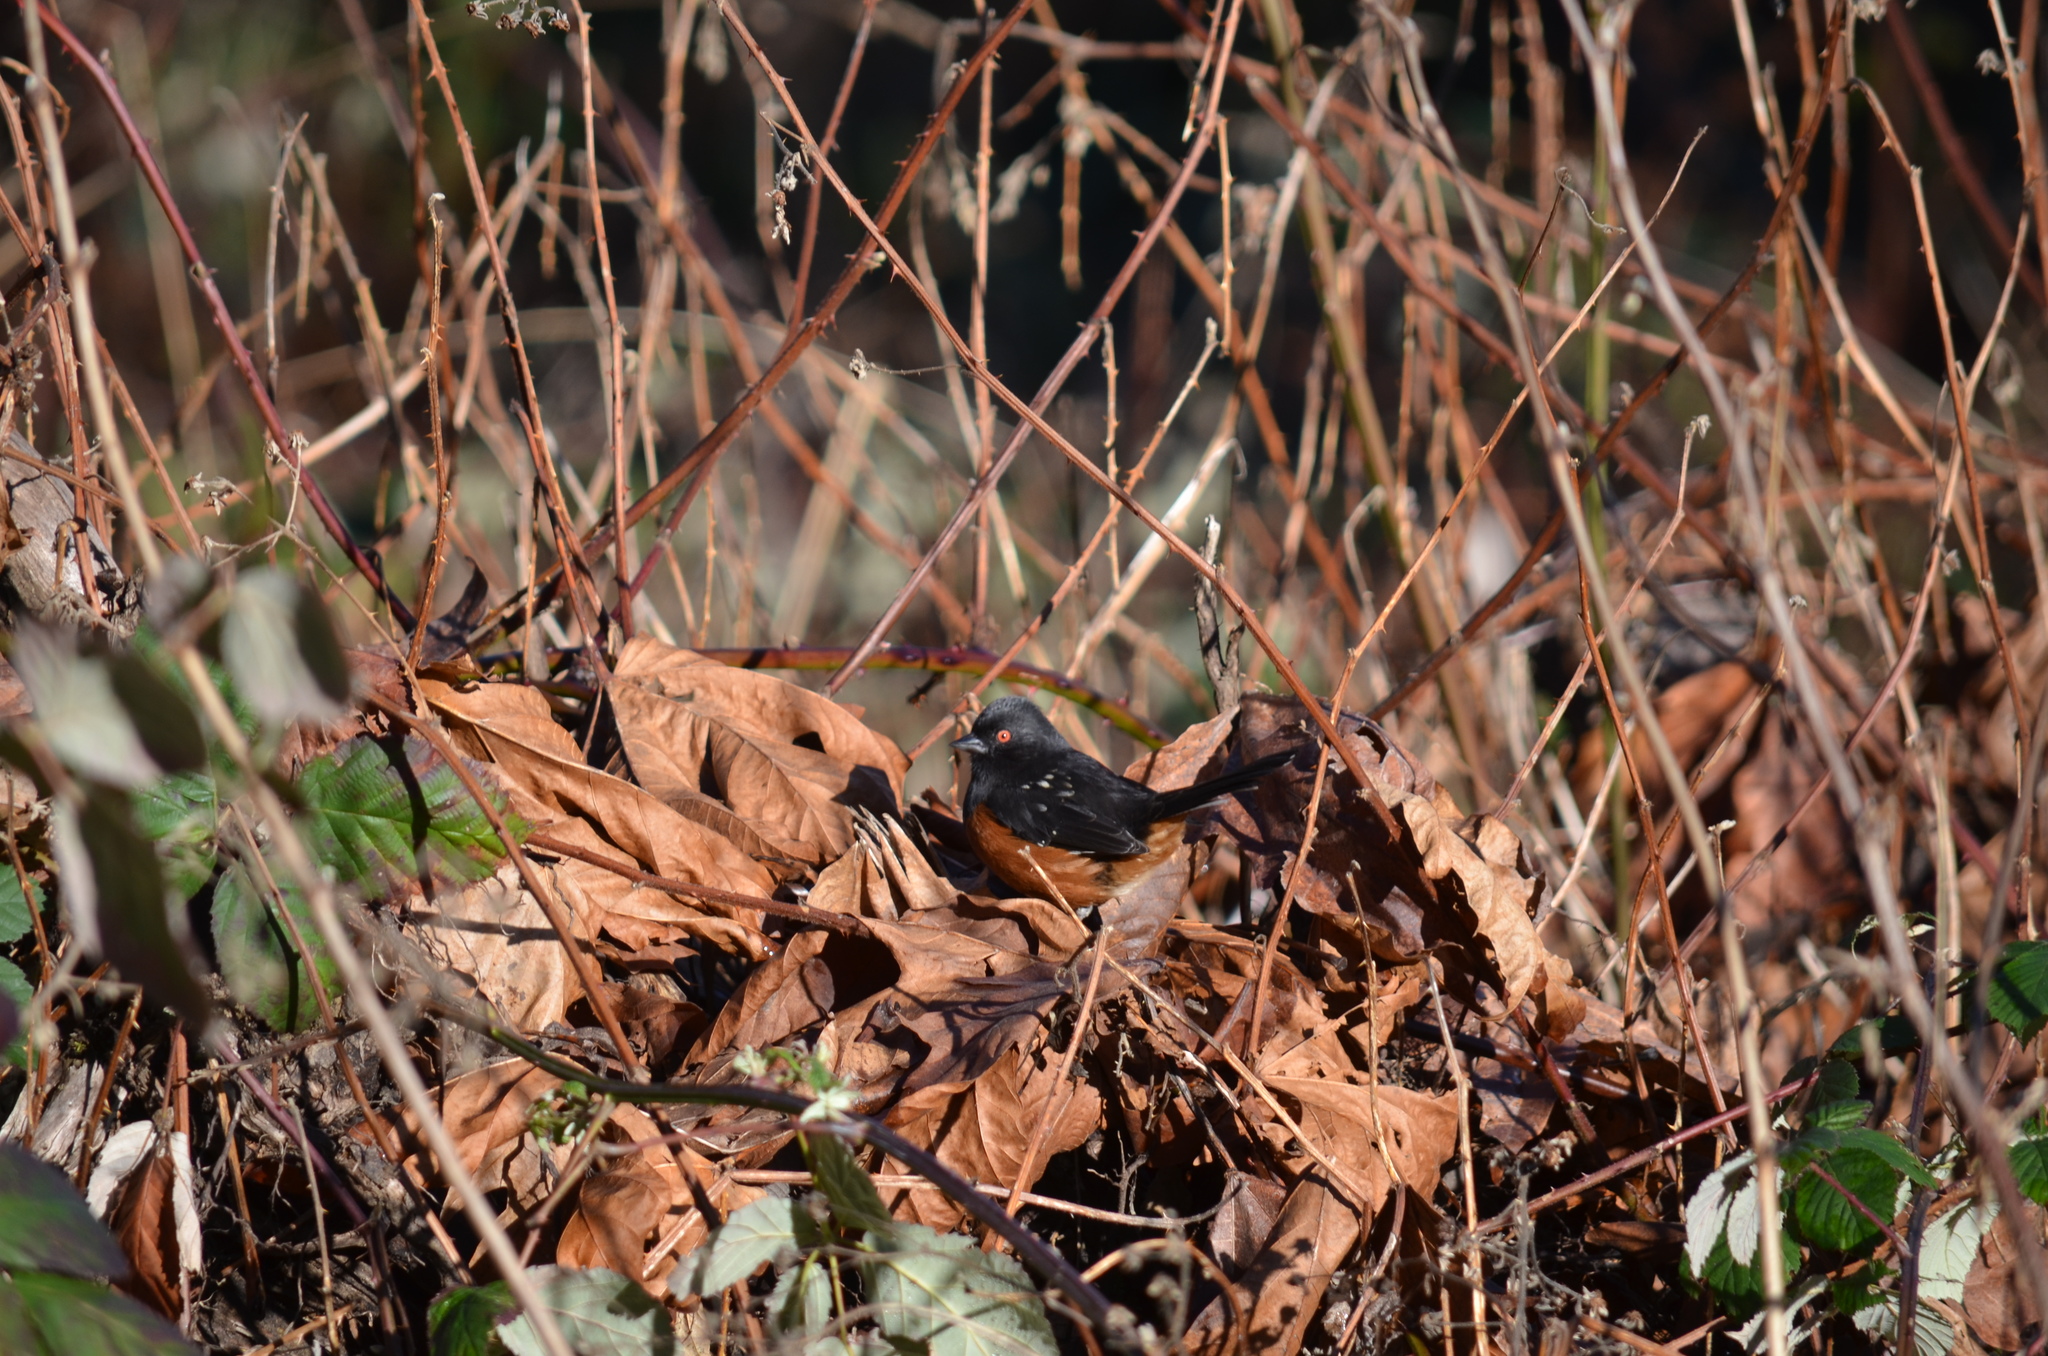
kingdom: Animalia
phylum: Chordata
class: Aves
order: Passeriformes
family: Passerellidae
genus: Pipilo
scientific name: Pipilo maculatus
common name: Spotted towhee
